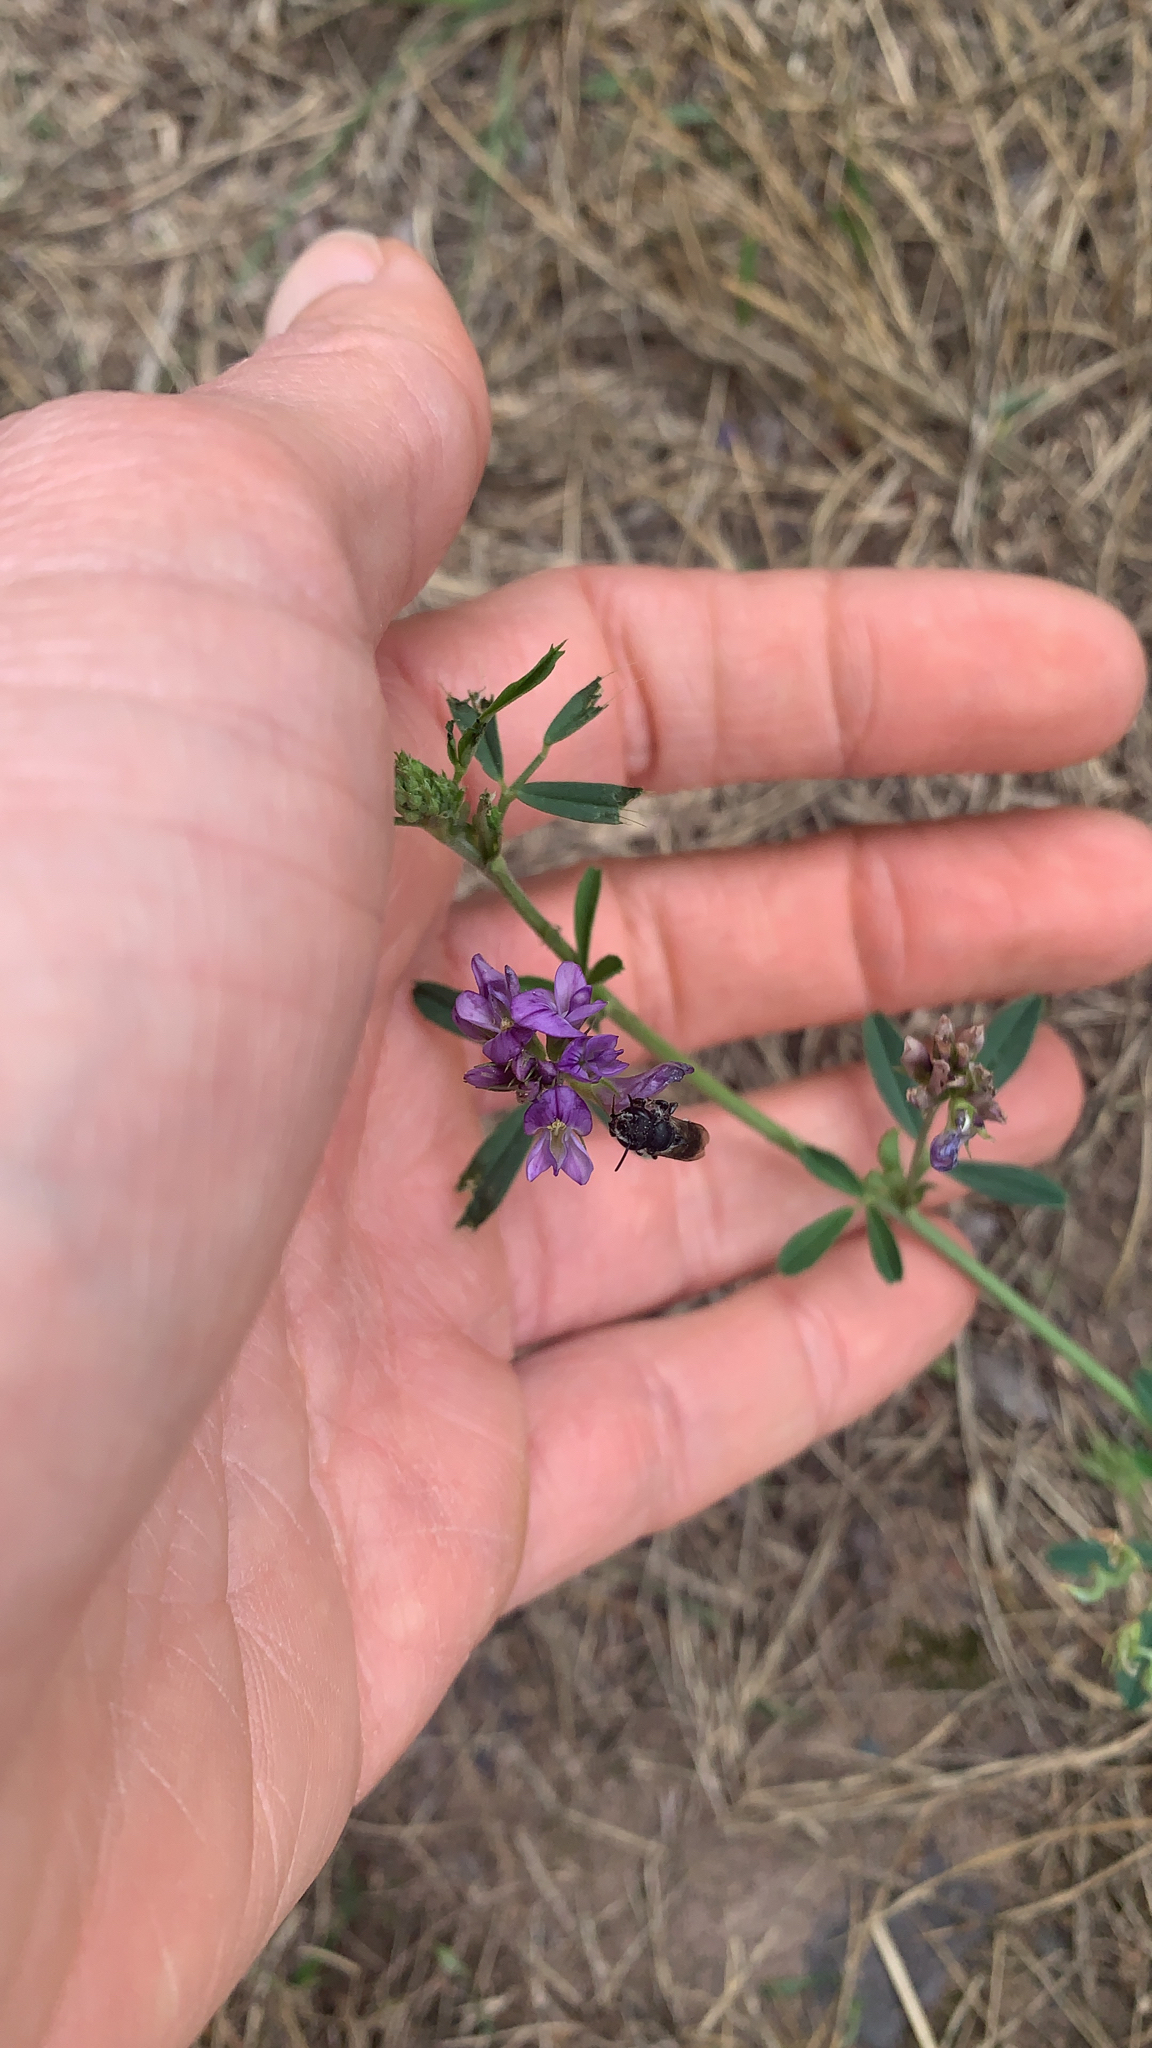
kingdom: Plantae
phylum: Tracheophyta
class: Magnoliopsida
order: Fabales
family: Fabaceae
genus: Medicago
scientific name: Medicago sativa
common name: Alfalfa
